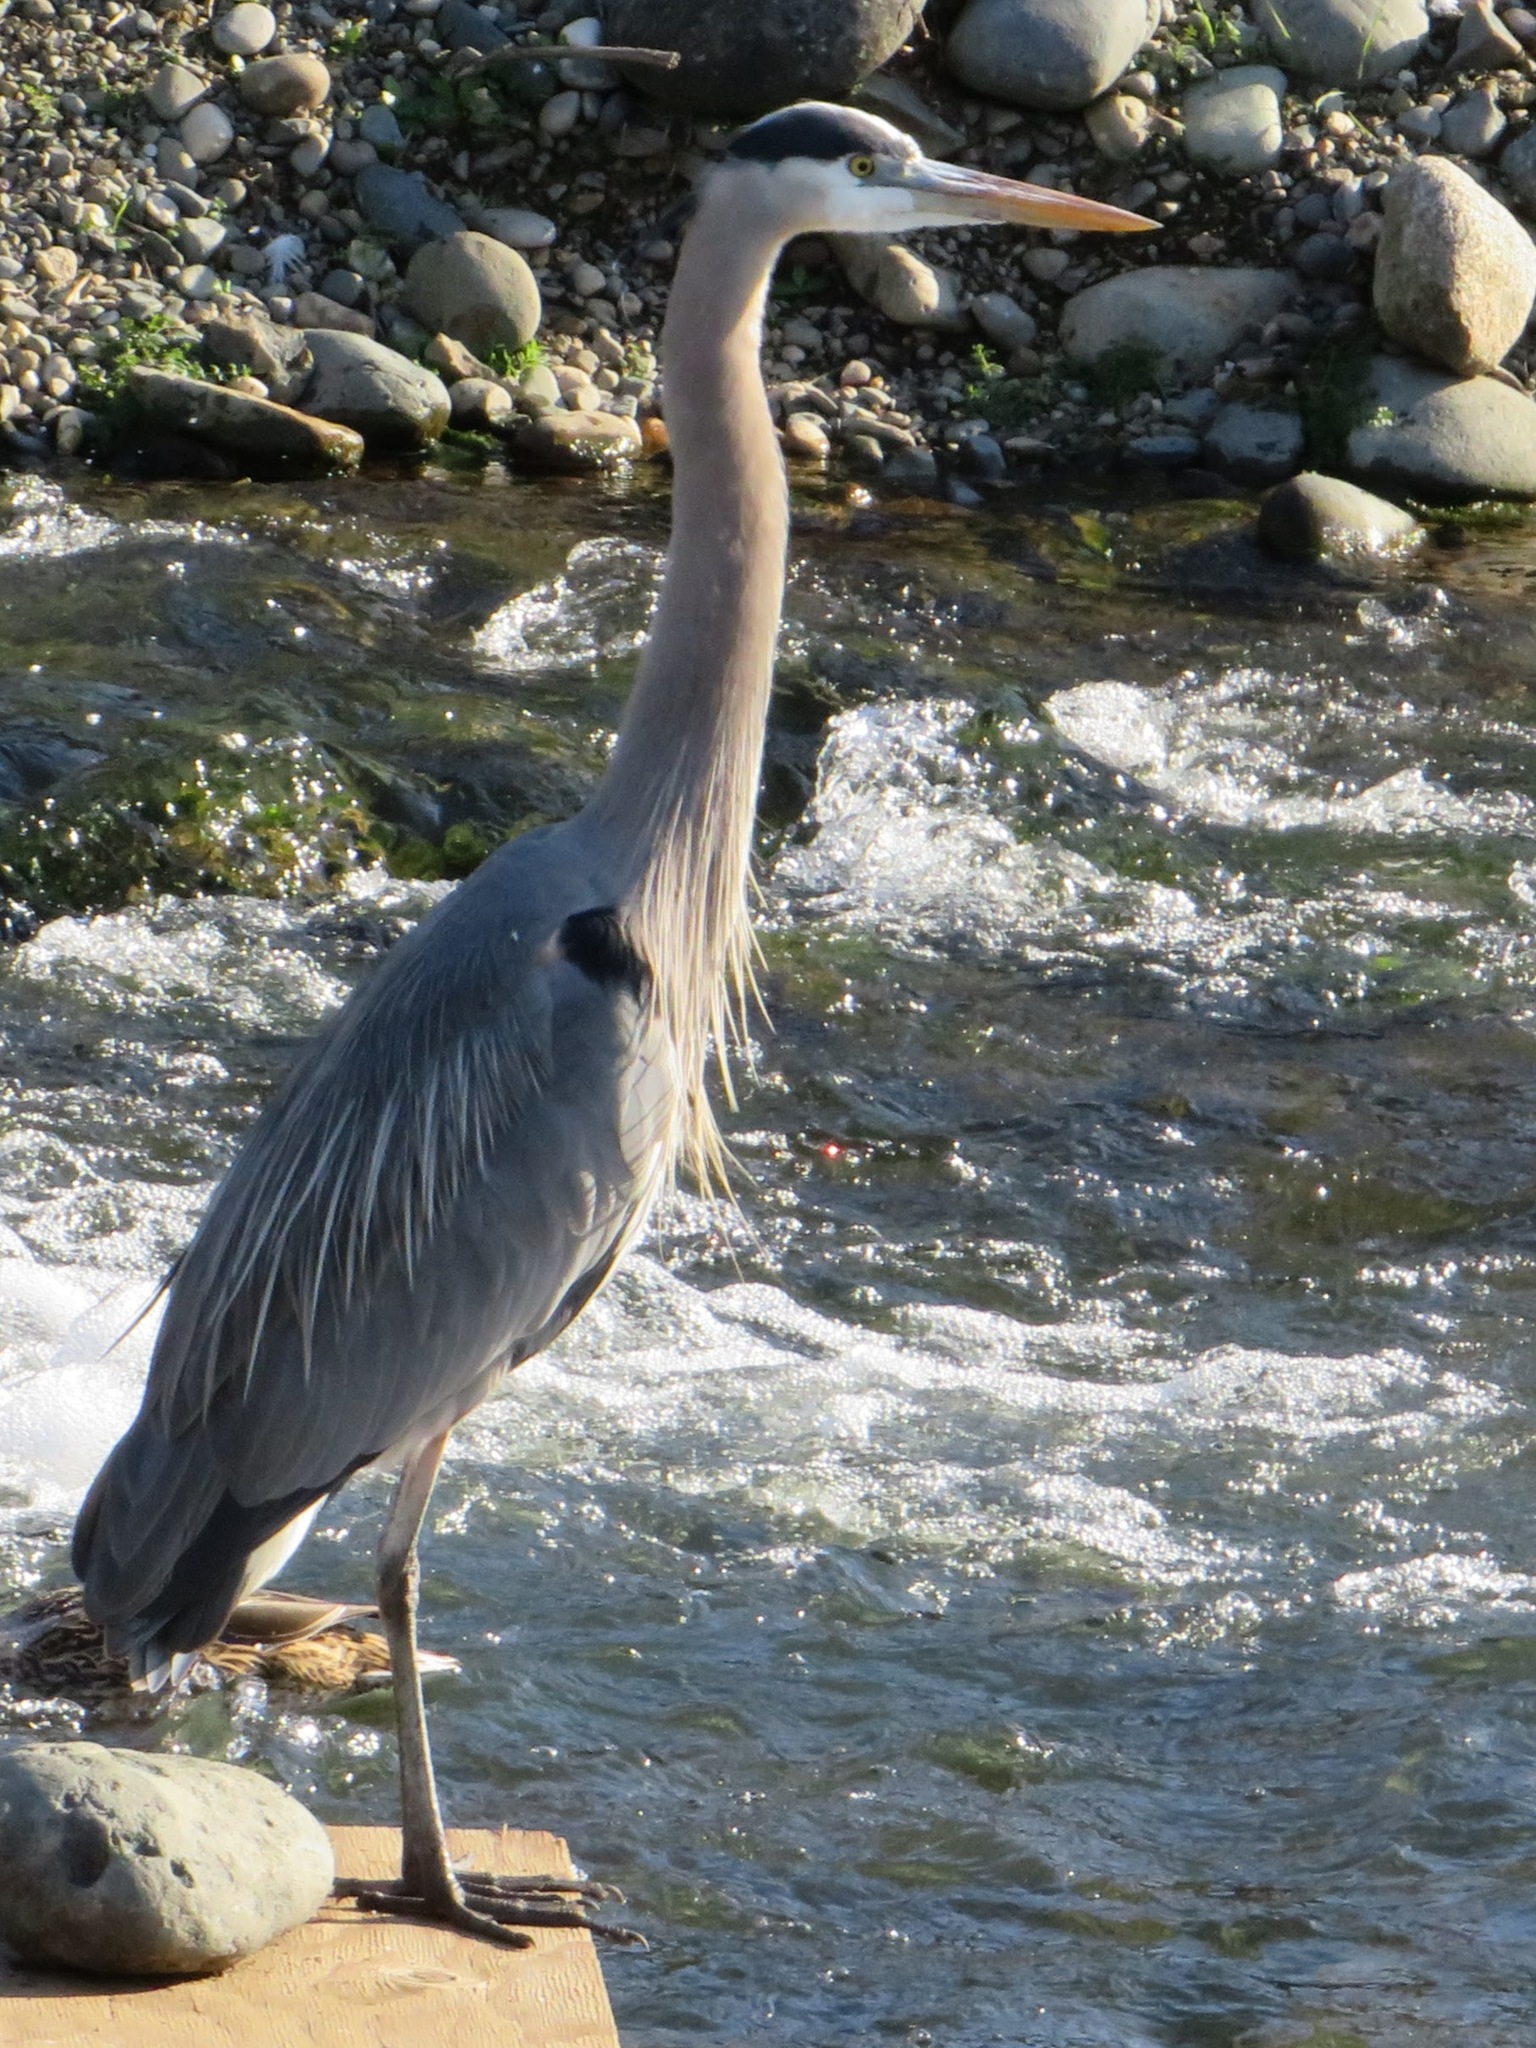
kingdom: Animalia
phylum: Chordata
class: Aves
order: Pelecaniformes
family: Ardeidae
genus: Ardea
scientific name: Ardea herodias
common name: Great blue heron
